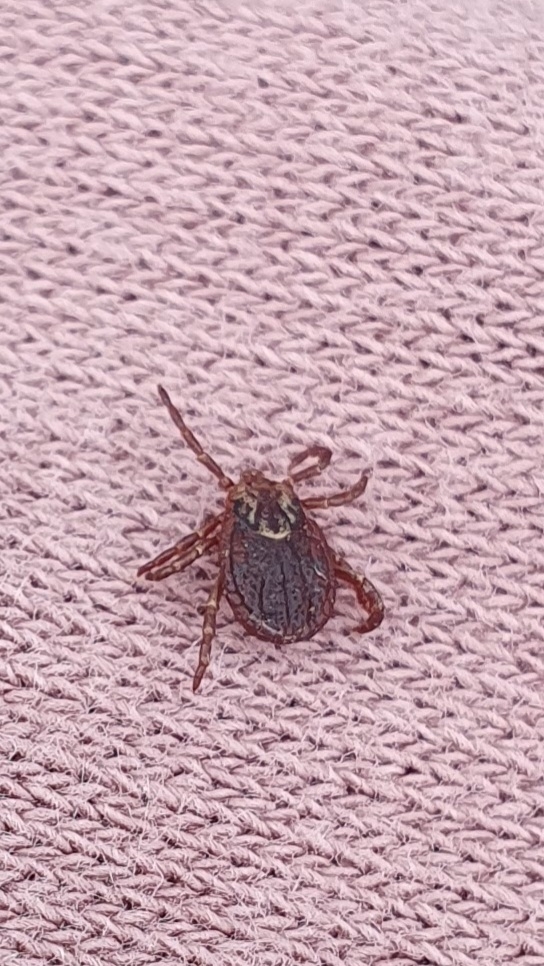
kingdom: Animalia
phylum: Arthropoda
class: Arachnida
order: Ixodida
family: Ixodidae
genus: Dermacentor
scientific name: Dermacentor marginatus
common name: Ornate sheep tick
